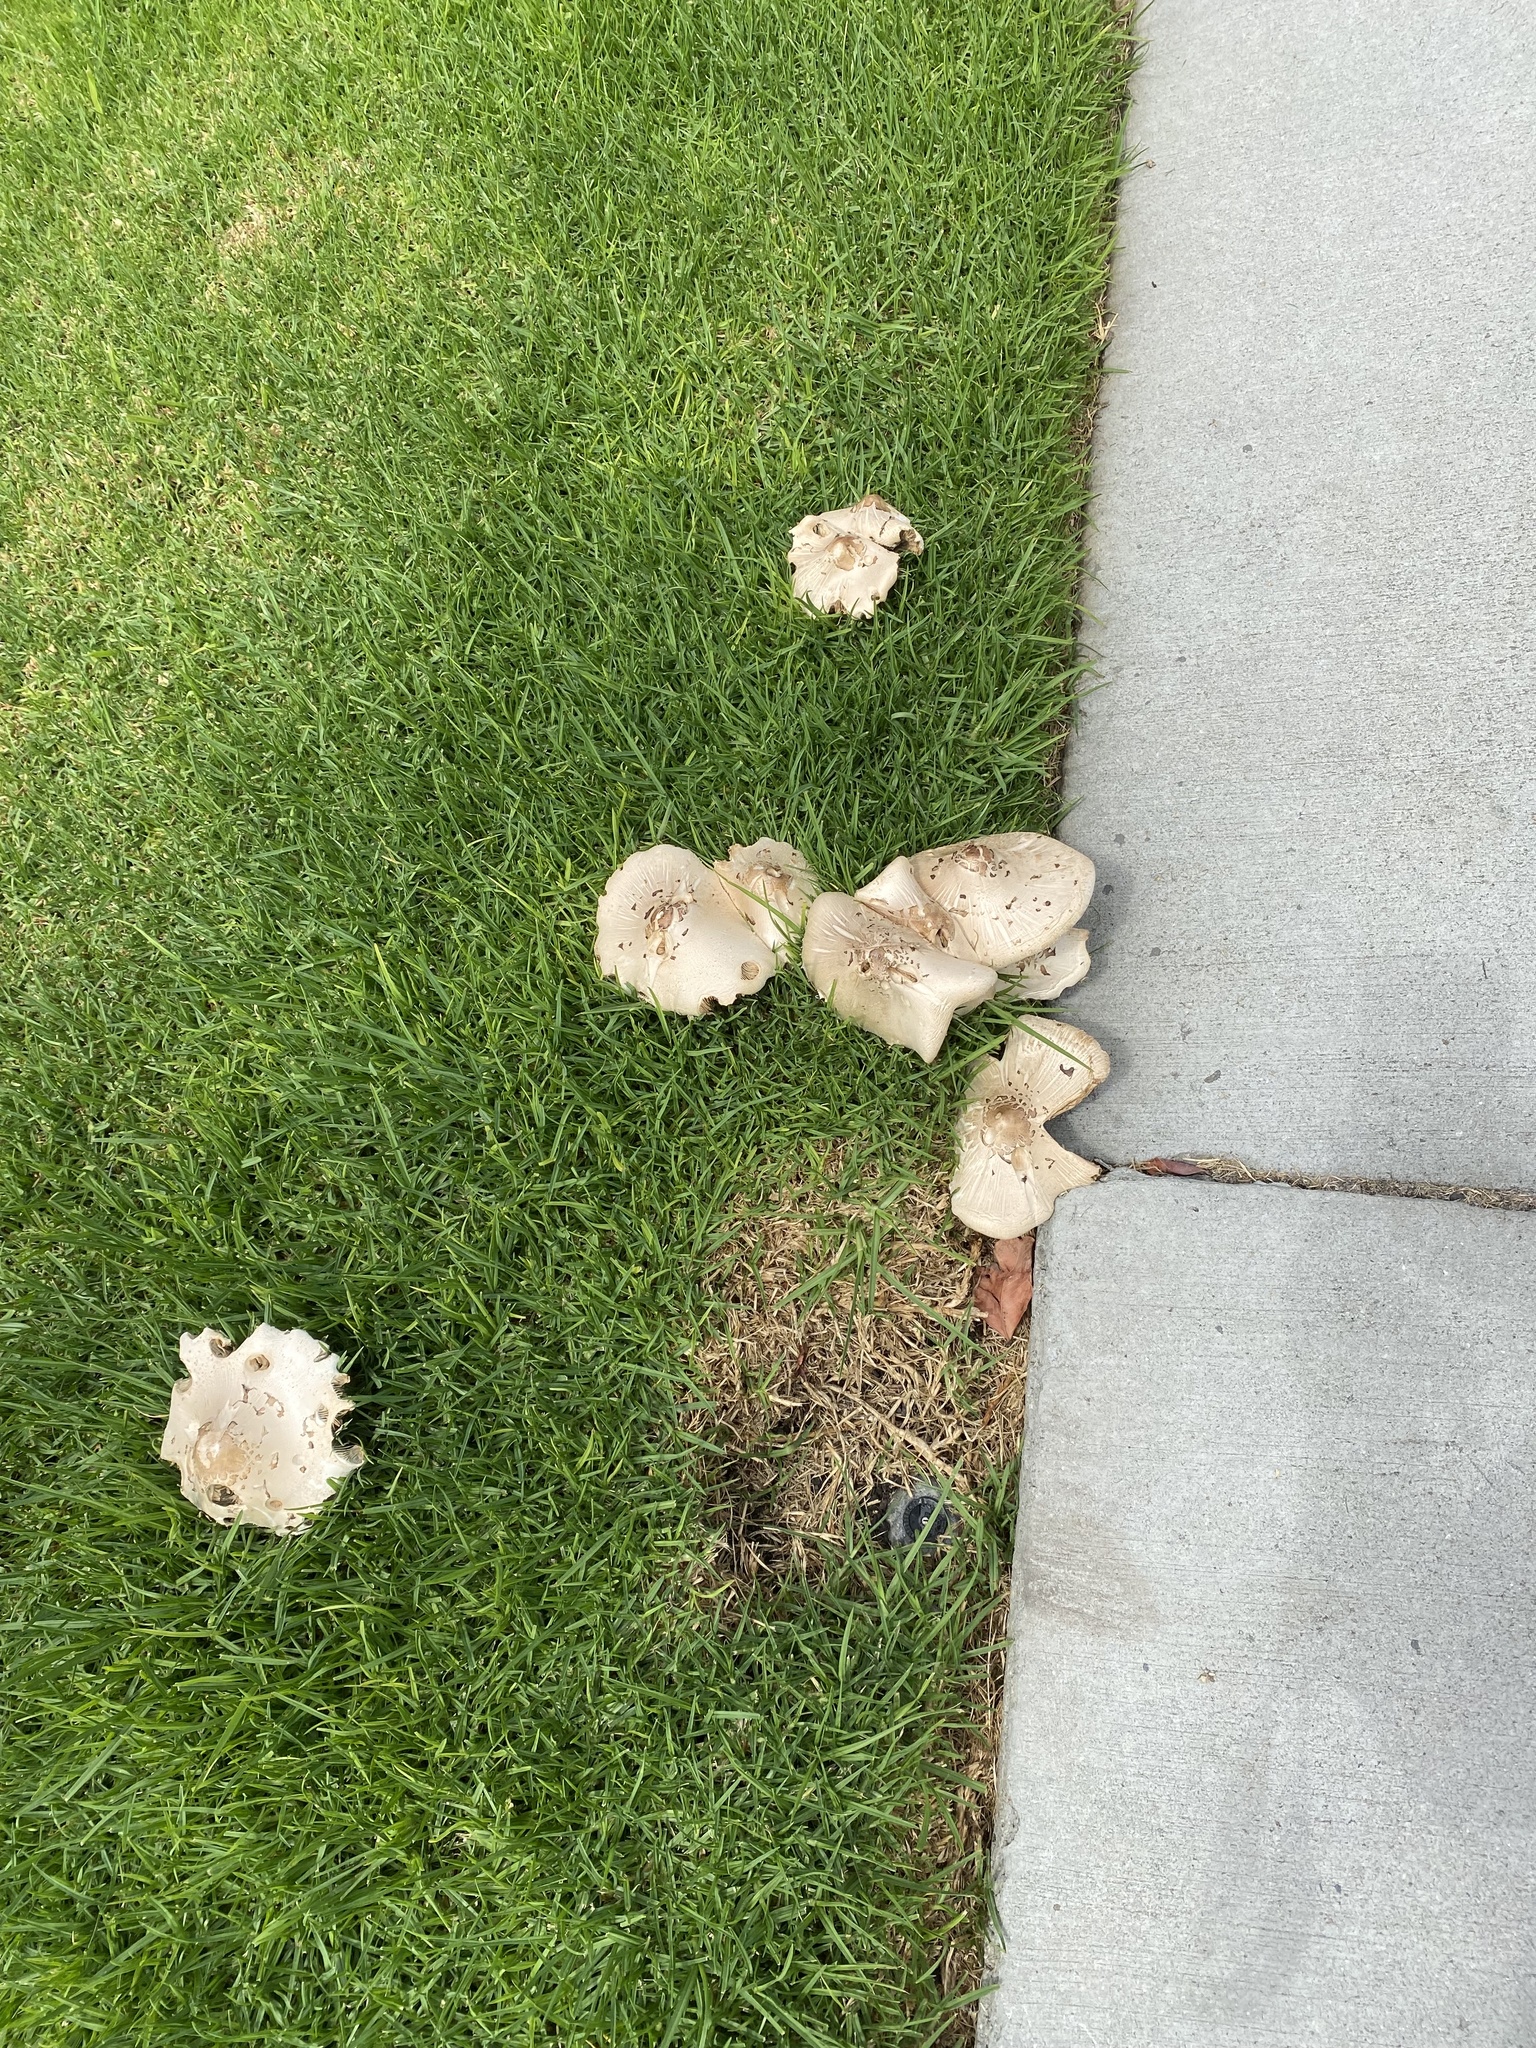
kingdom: Fungi
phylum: Basidiomycota
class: Agaricomycetes
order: Agaricales
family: Agaricaceae
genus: Chlorophyllum
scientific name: Chlorophyllum molybdites
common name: False parasol
